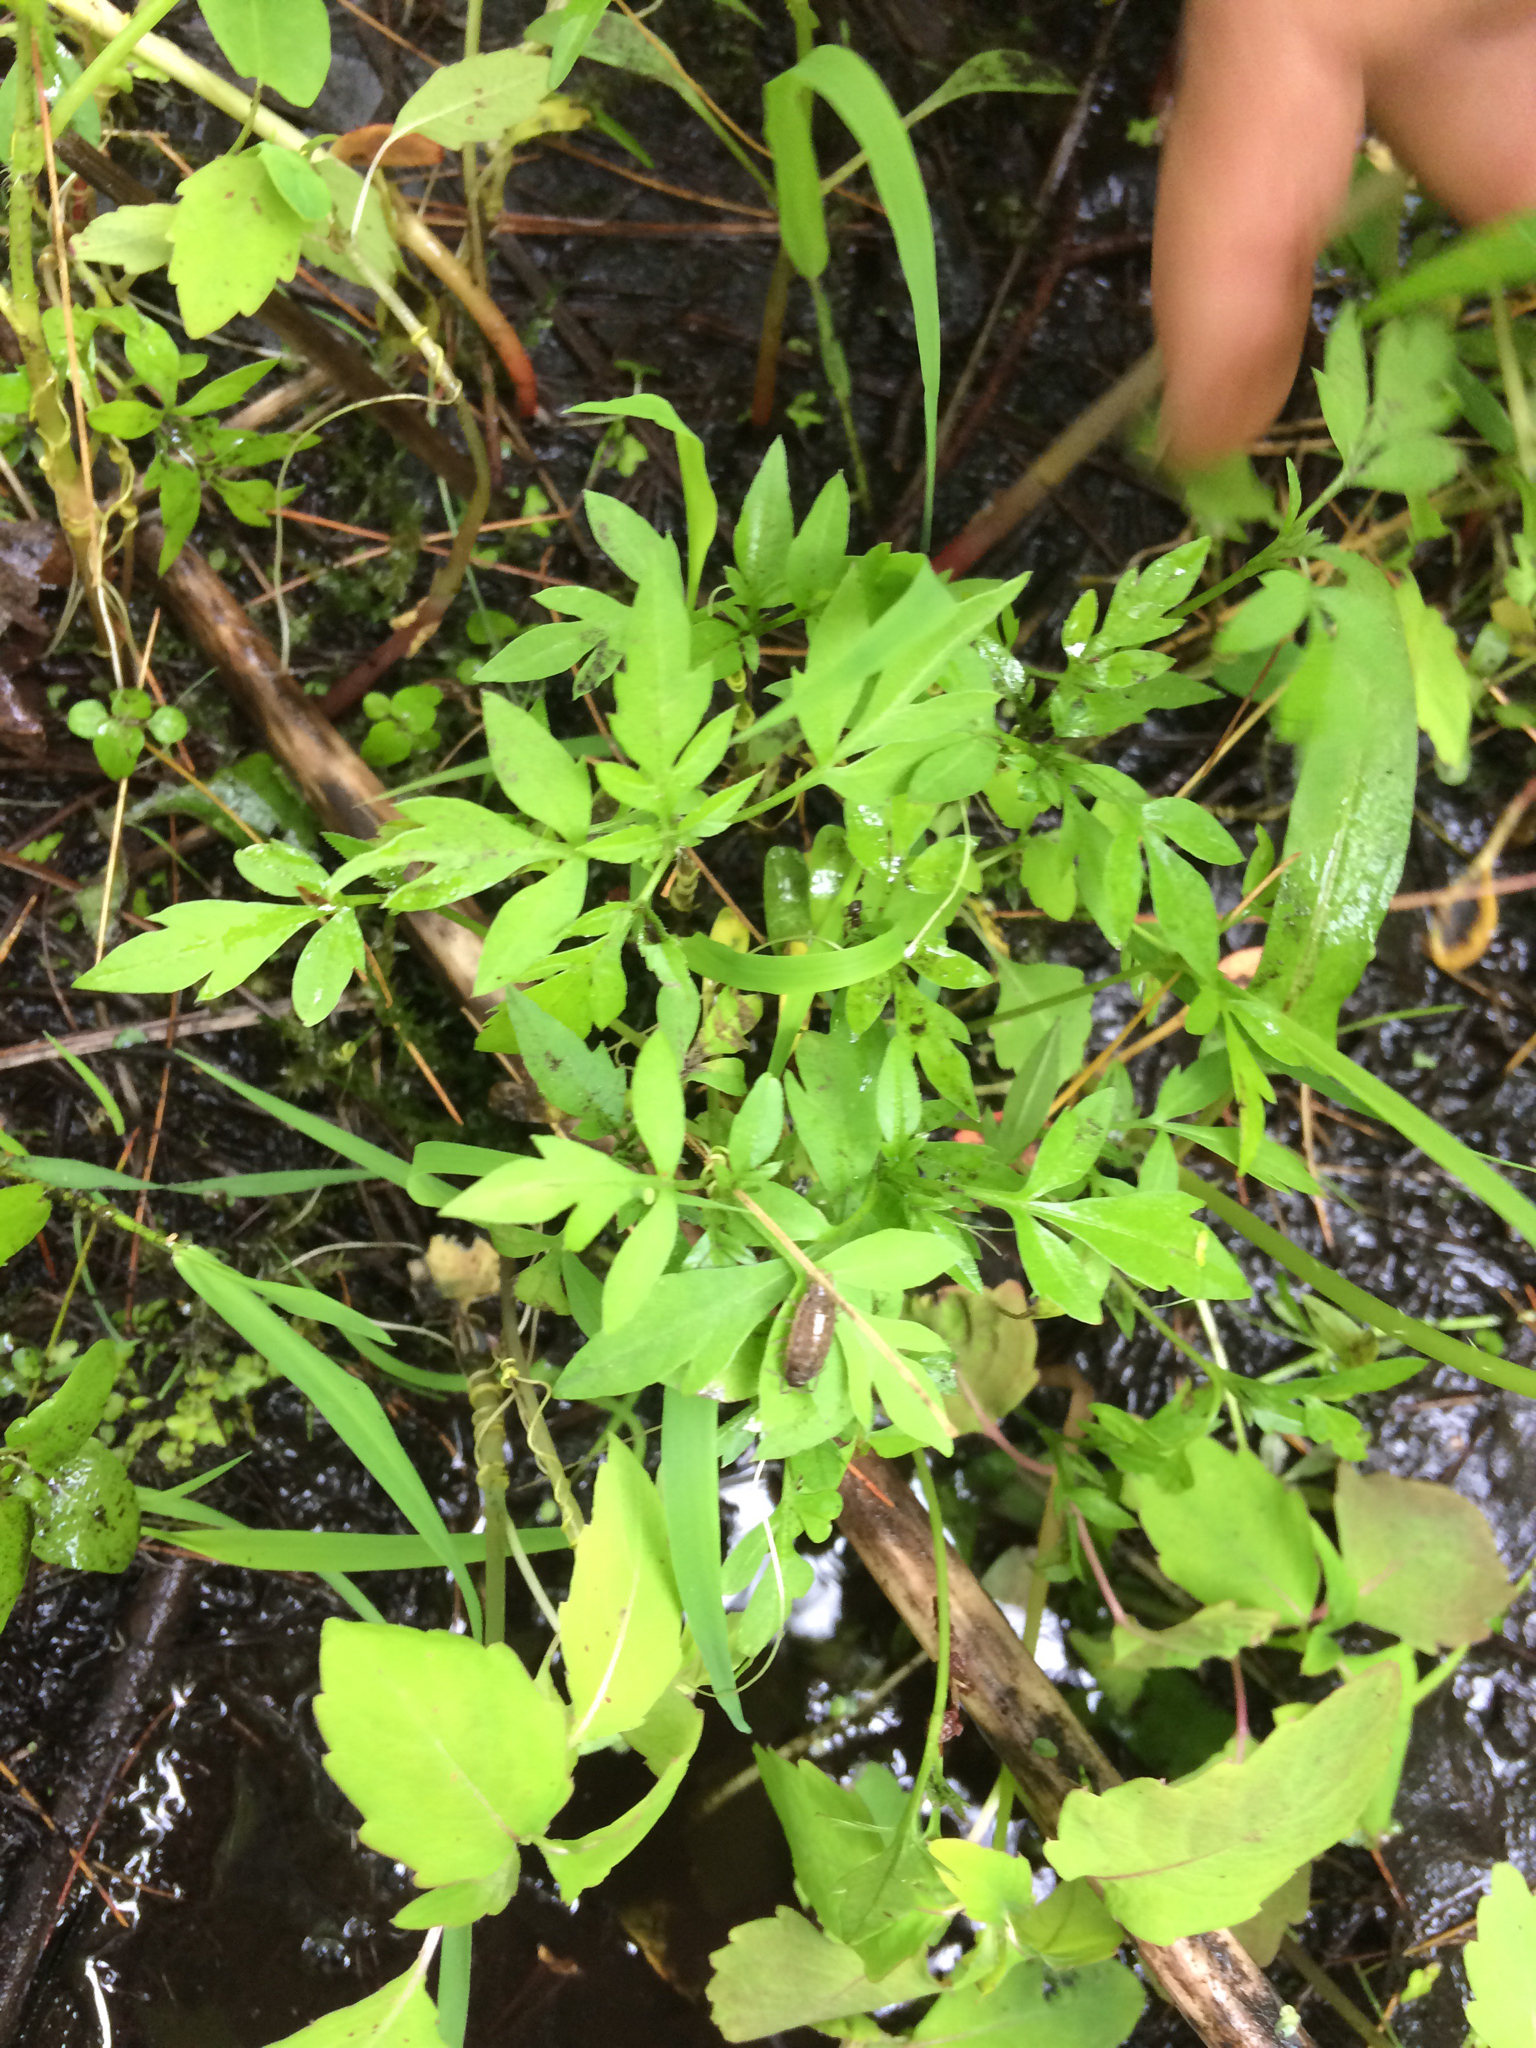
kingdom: Plantae
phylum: Tracheophyta
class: Magnoliopsida
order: Asterales
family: Asteraceae
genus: Bidens
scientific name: Bidens bipinnata
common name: Spanish-needles
